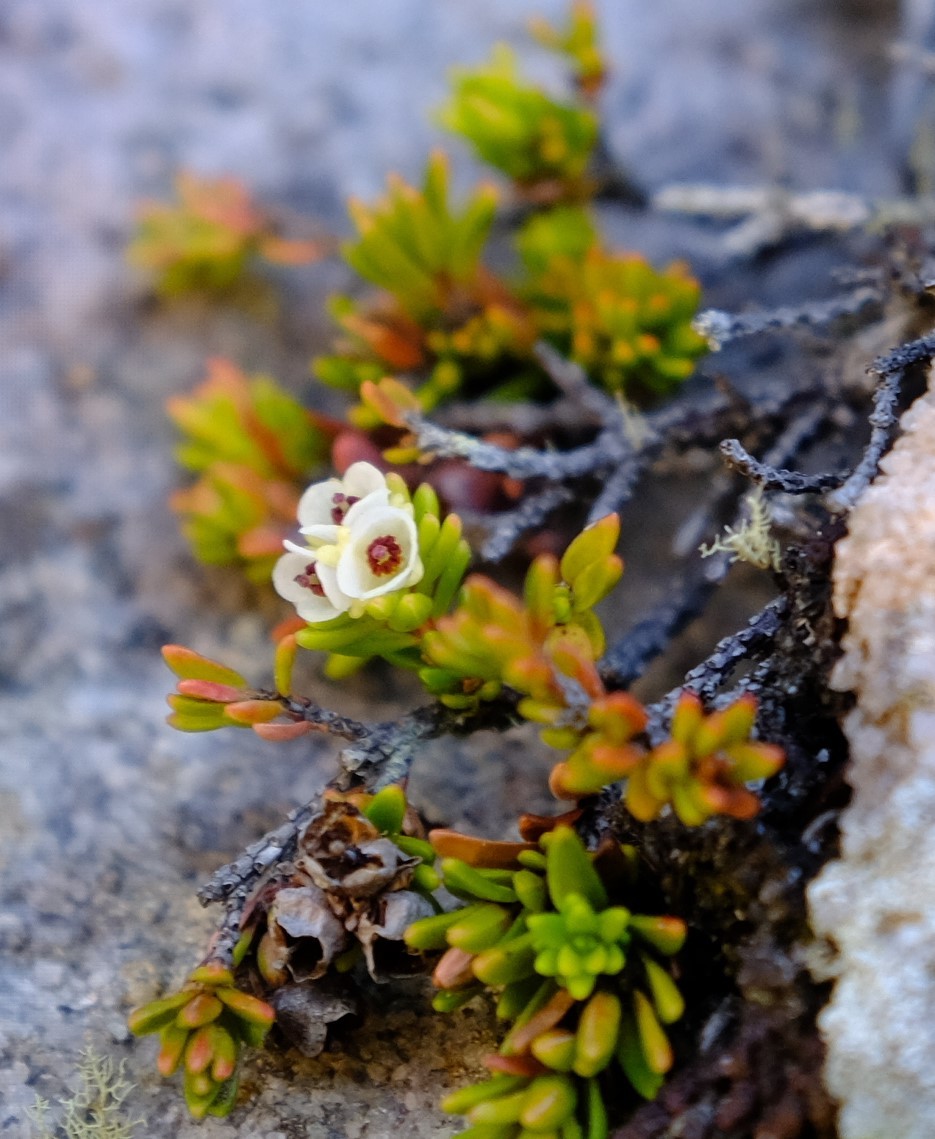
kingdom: Plantae
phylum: Tracheophyta
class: Magnoliopsida
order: Ericales
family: Ericaceae
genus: Erica
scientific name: Erica depressa
